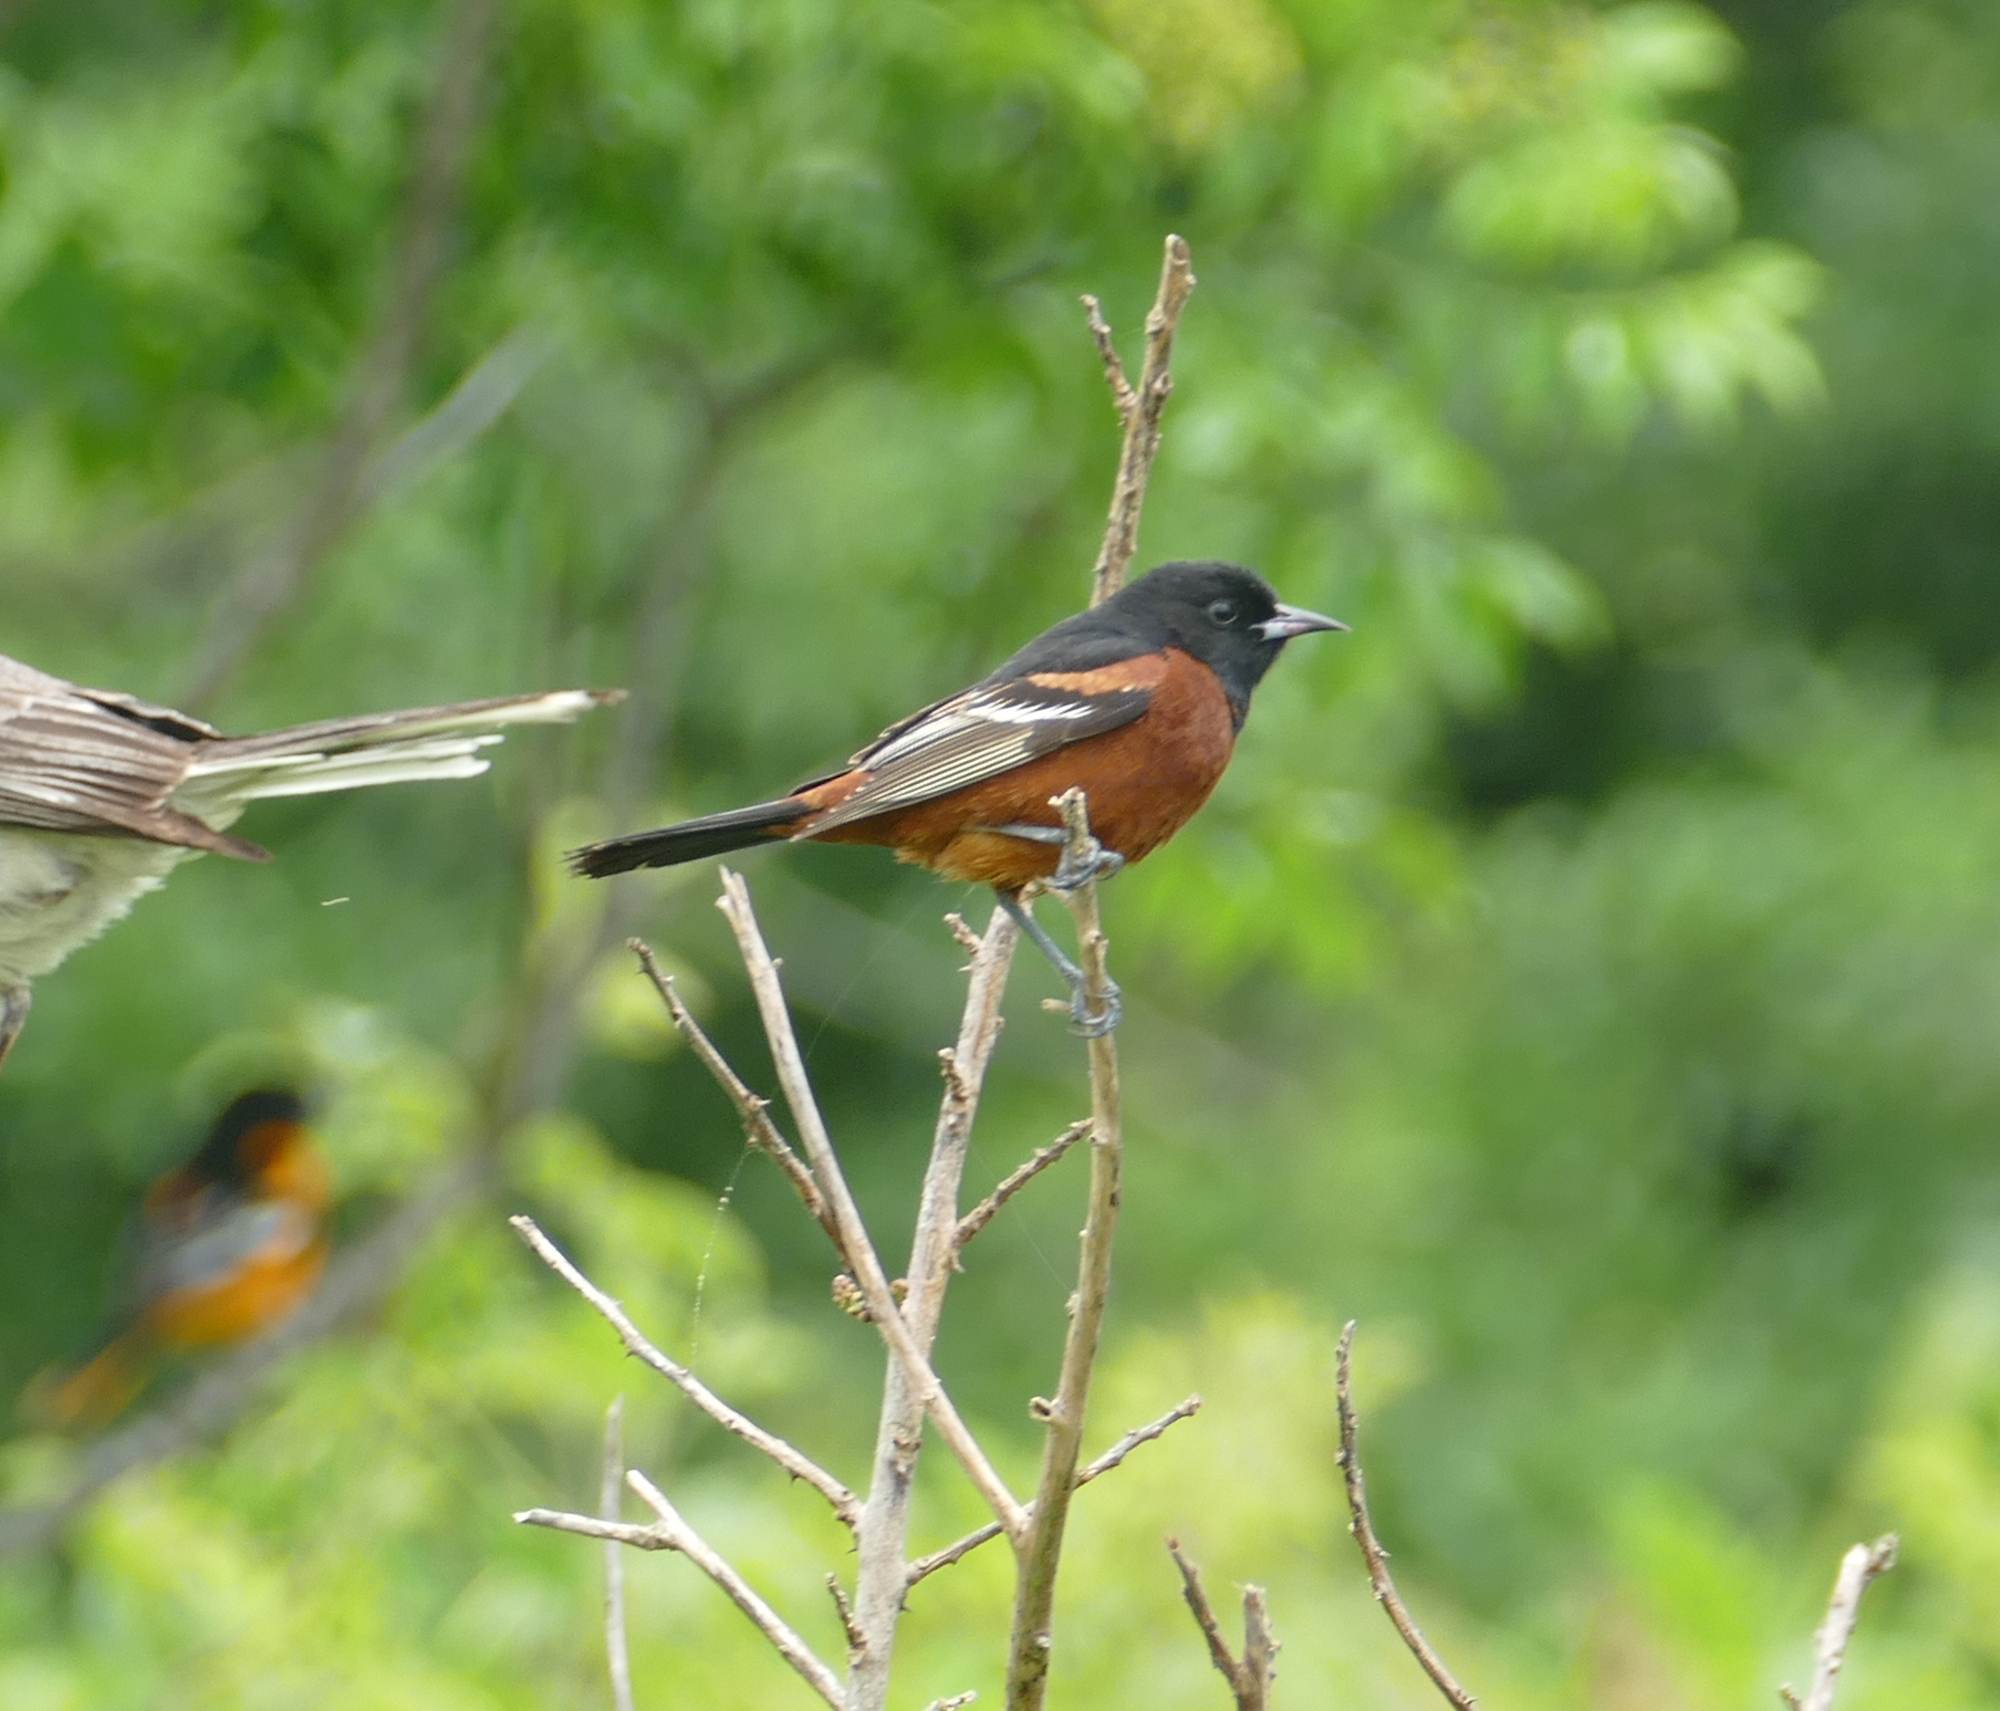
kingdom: Animalia
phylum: Chordata
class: Aves
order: Passeriformes
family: Icteridae
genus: Icterus
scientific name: Icterus spurius
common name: Orchard oriole
